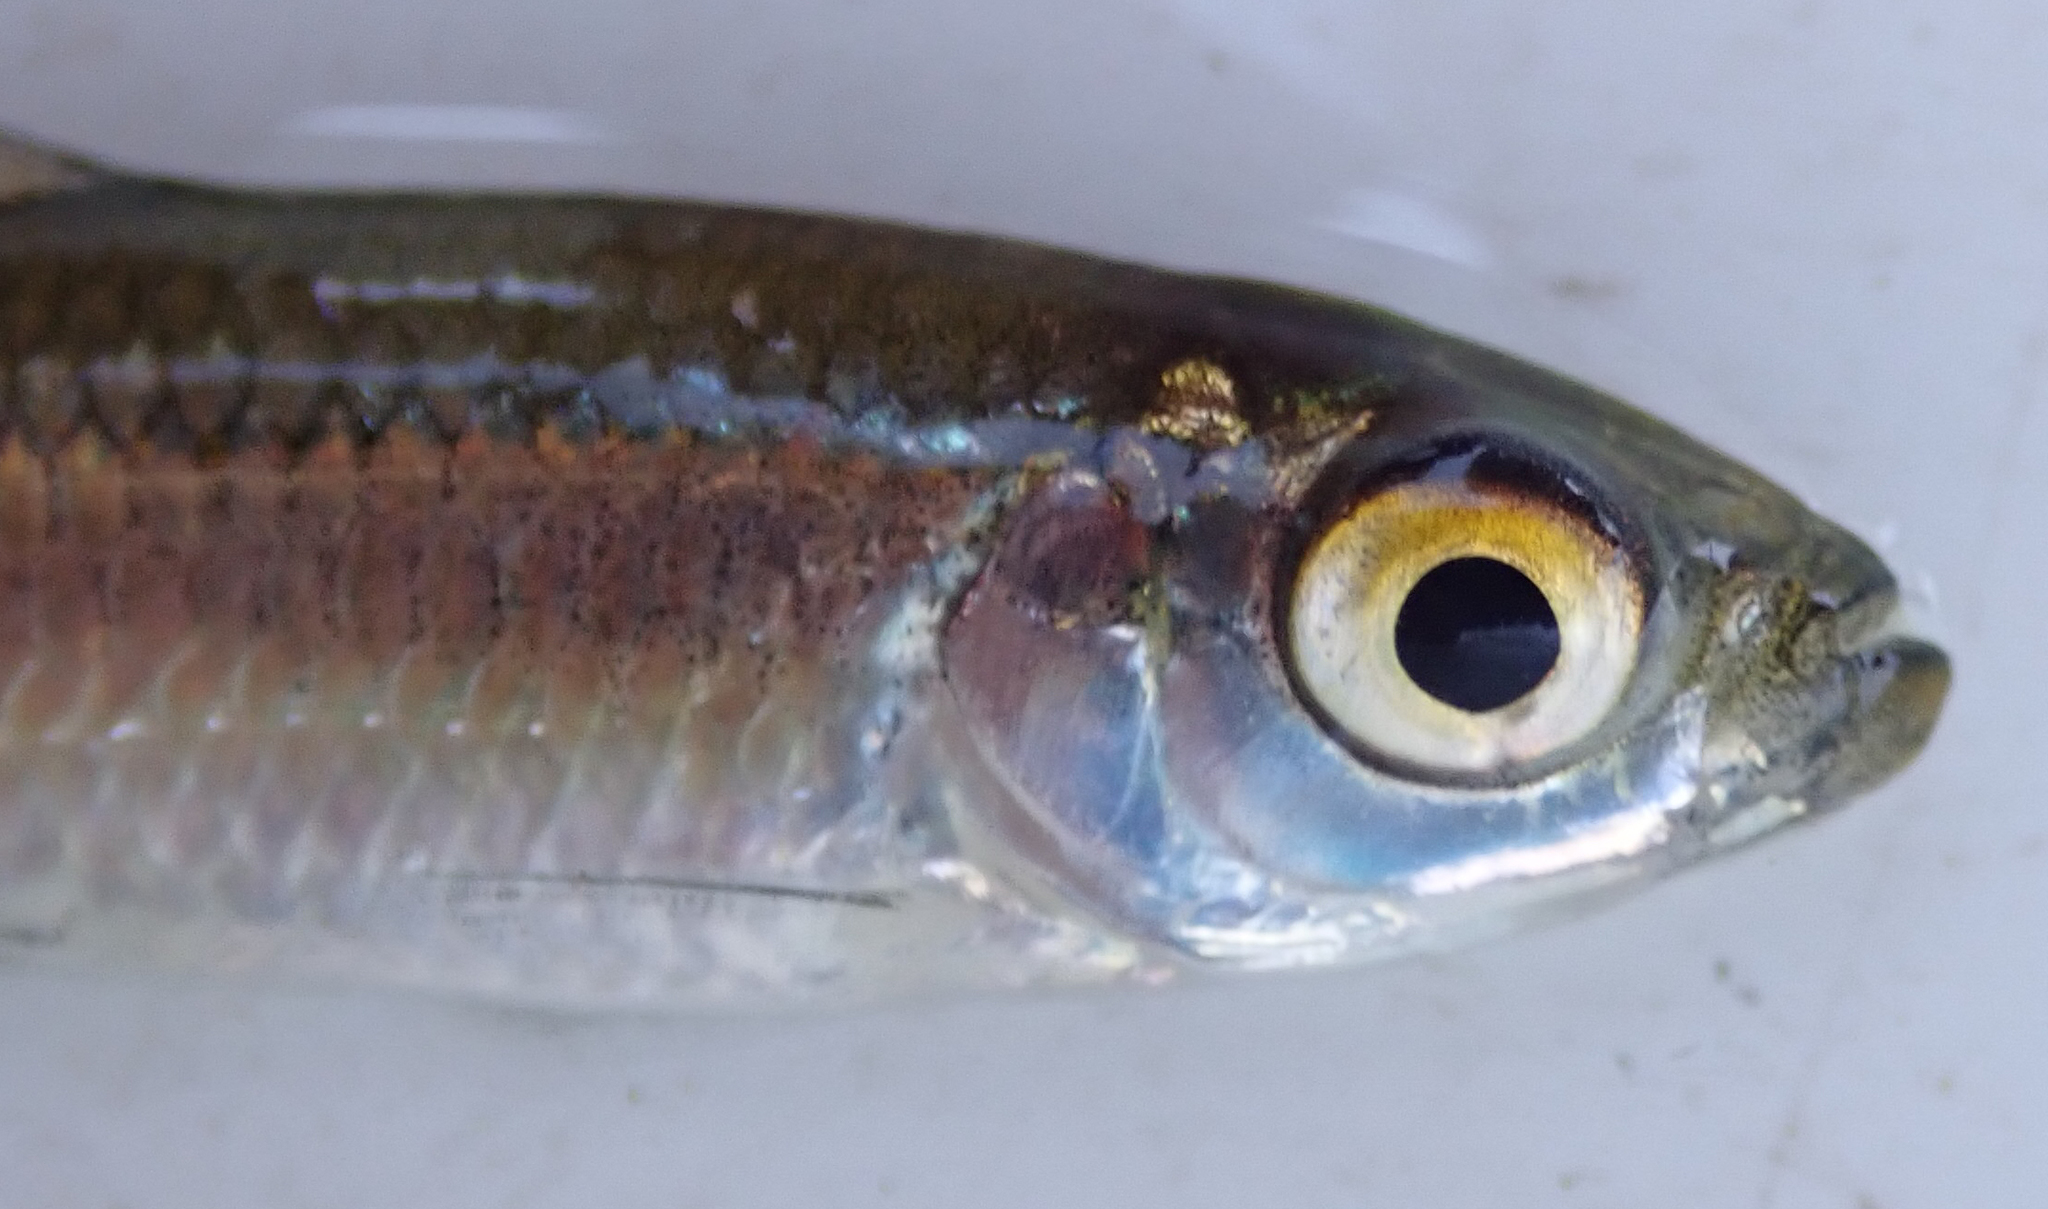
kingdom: Animalia
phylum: Chordata
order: Characiformes
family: Alestidae
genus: Alestes
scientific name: Alestes
